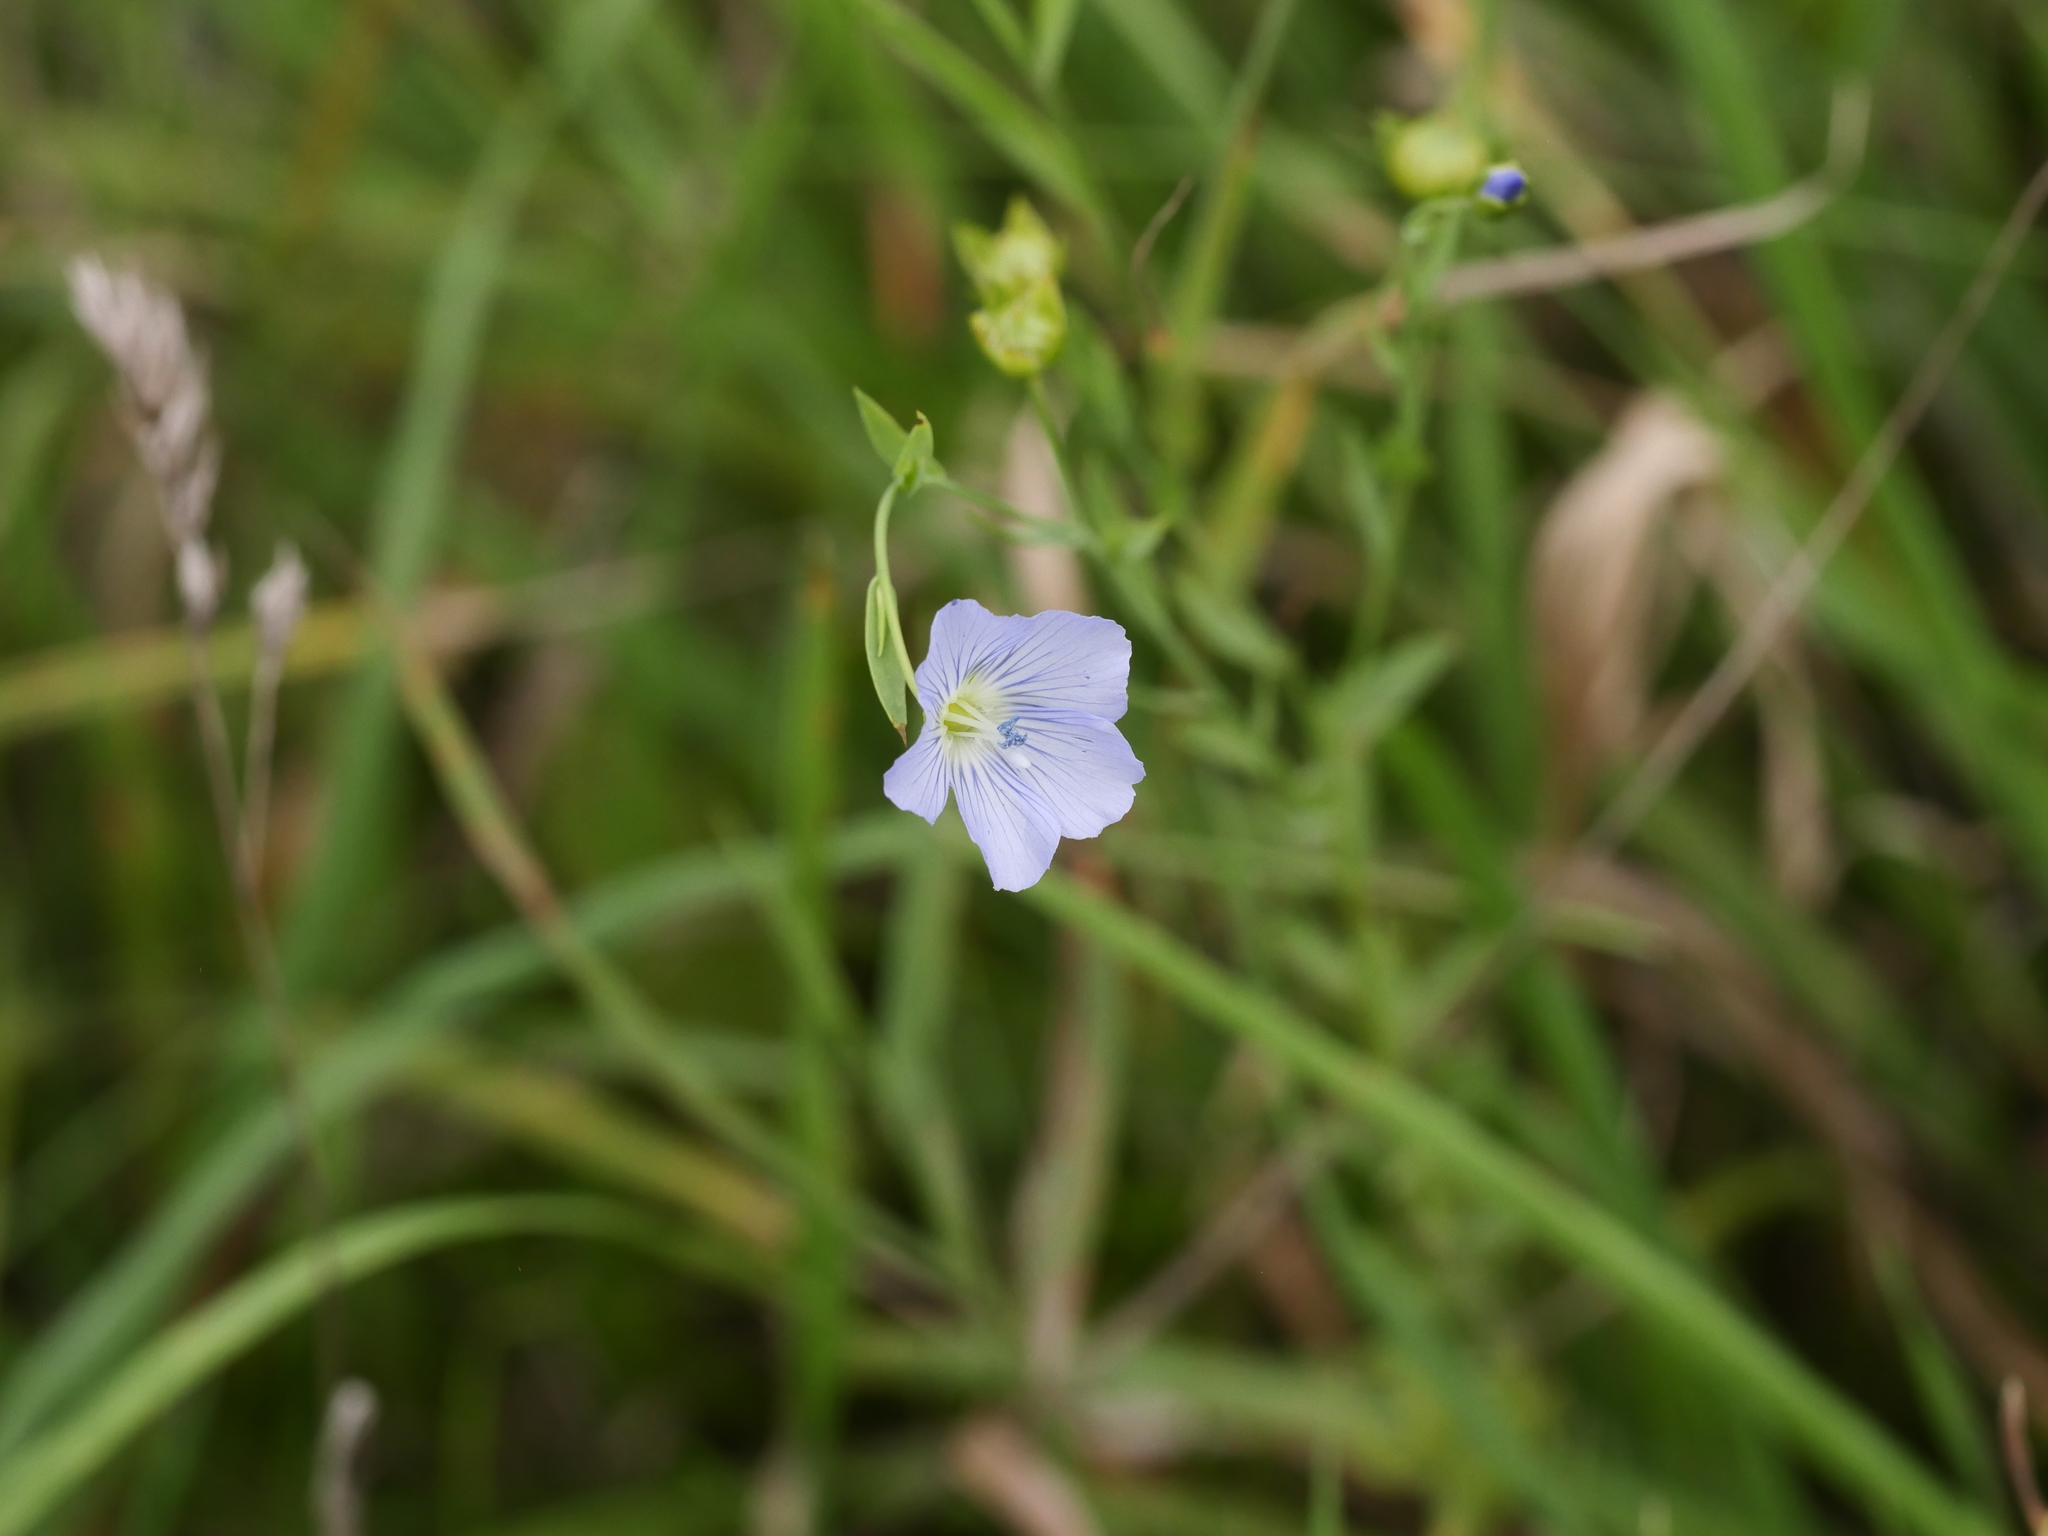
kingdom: Plantae
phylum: Tracheophyta
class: Magnoliopsida
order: Malpighiales
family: Linaceae
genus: Linum
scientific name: Linum usitatissimum
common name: Flax
